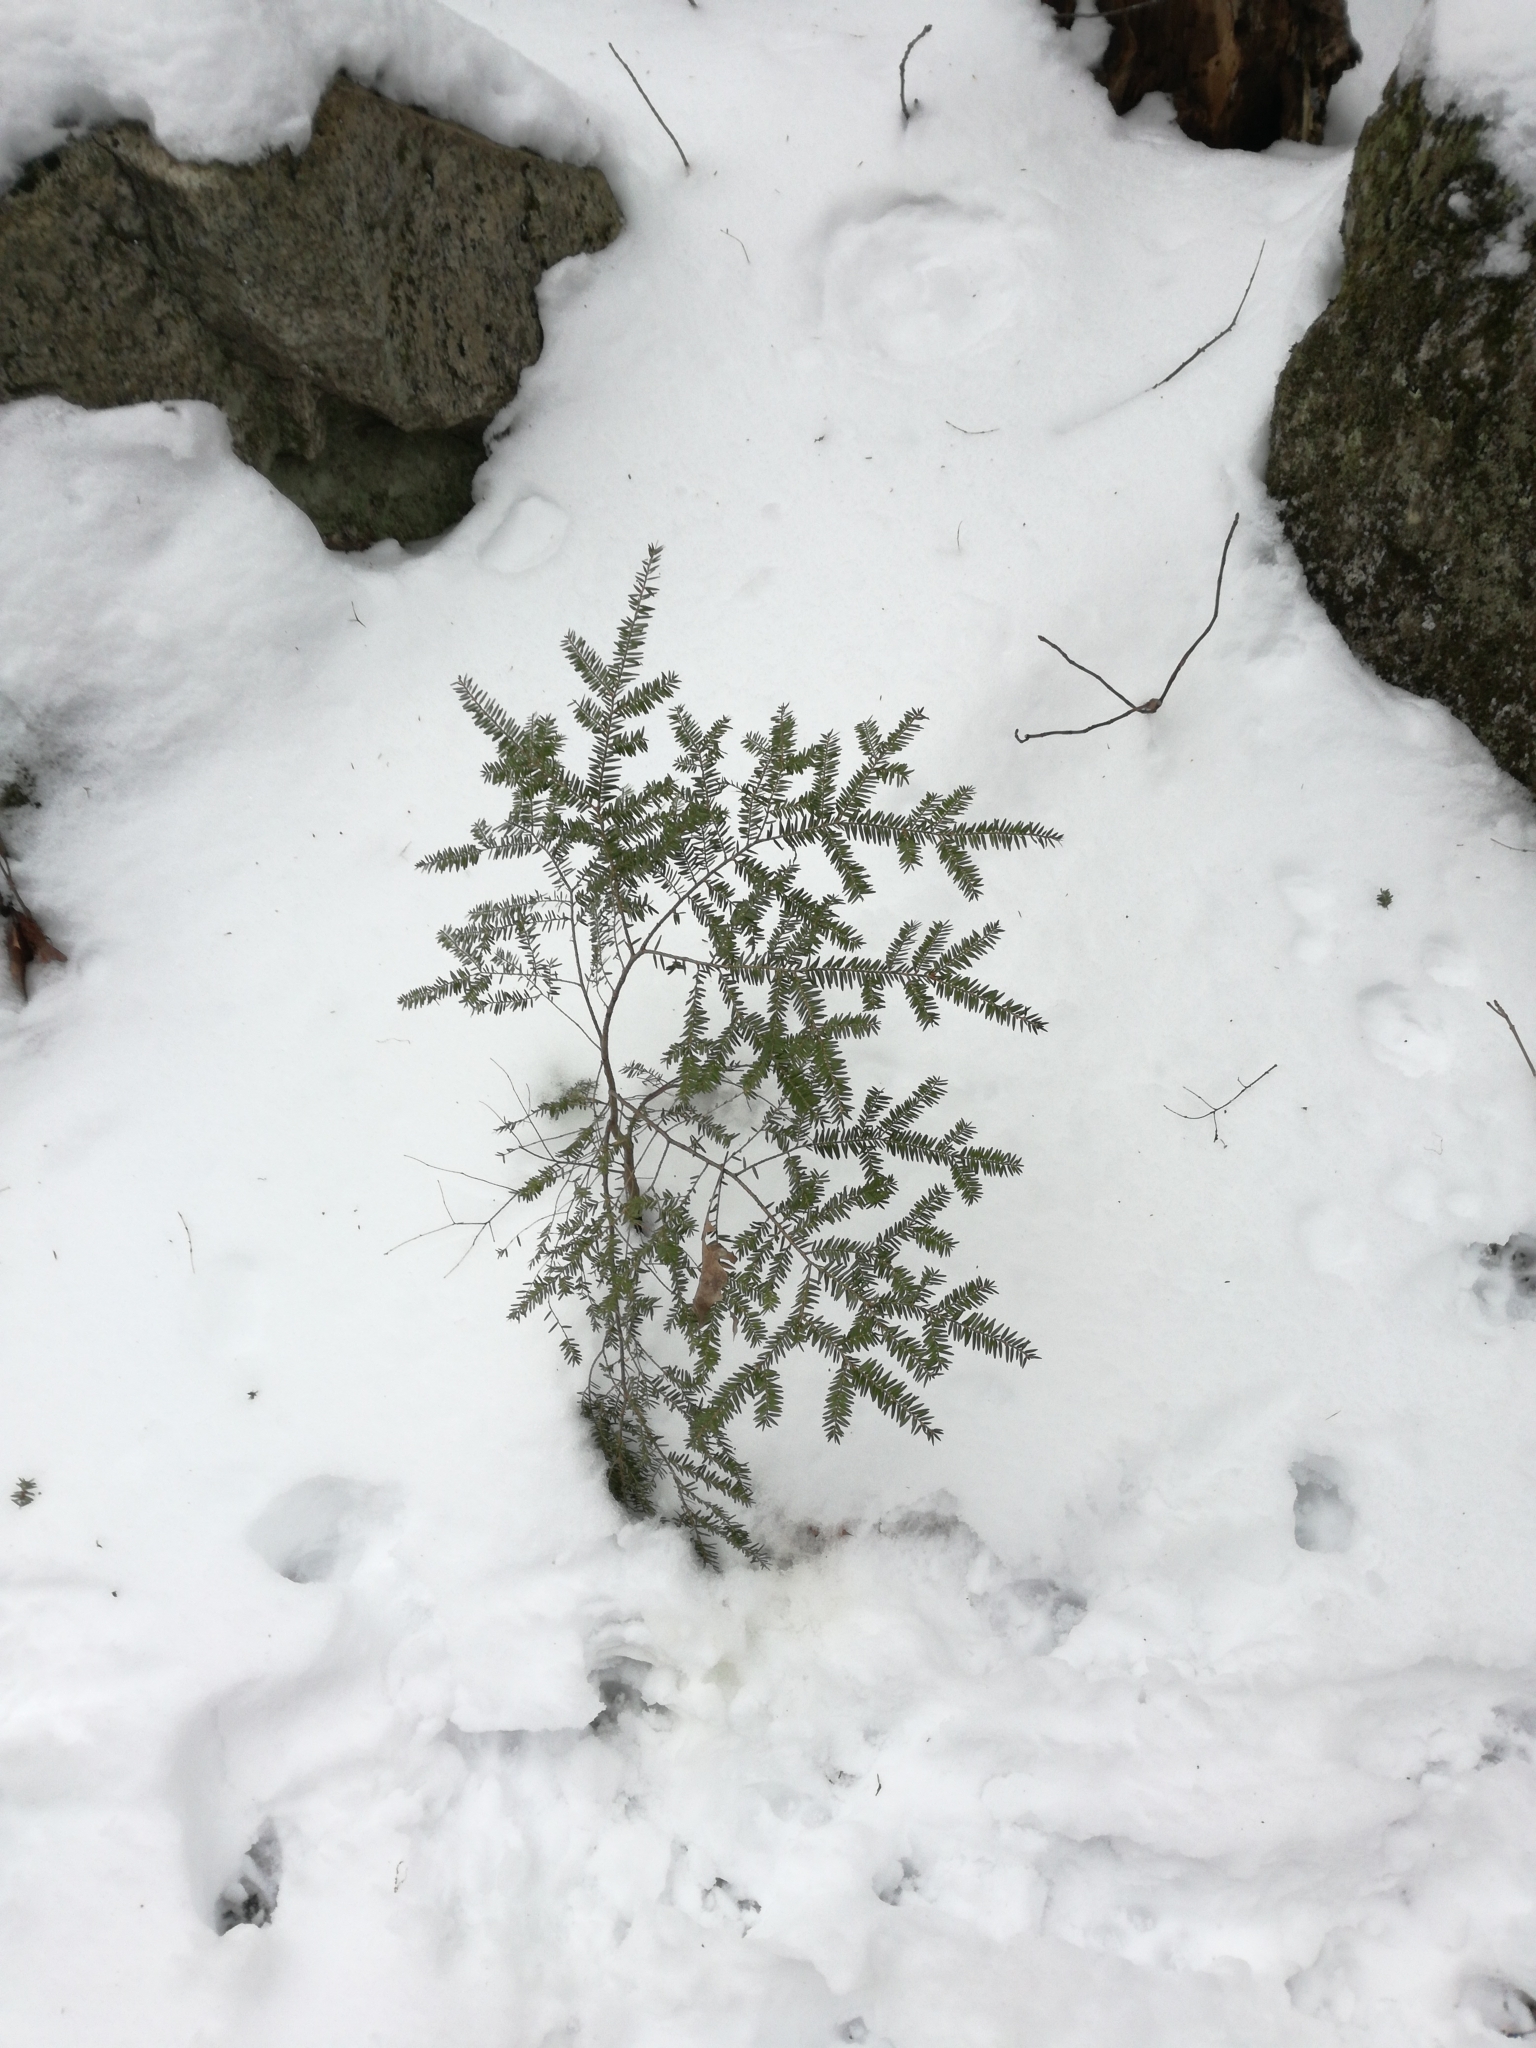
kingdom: Plantae
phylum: Tracheophyta
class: Pinopsida
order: Pinales
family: Pinaceae
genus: Tsuga
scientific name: Tsuga canadensis
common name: Eastern hemlock
